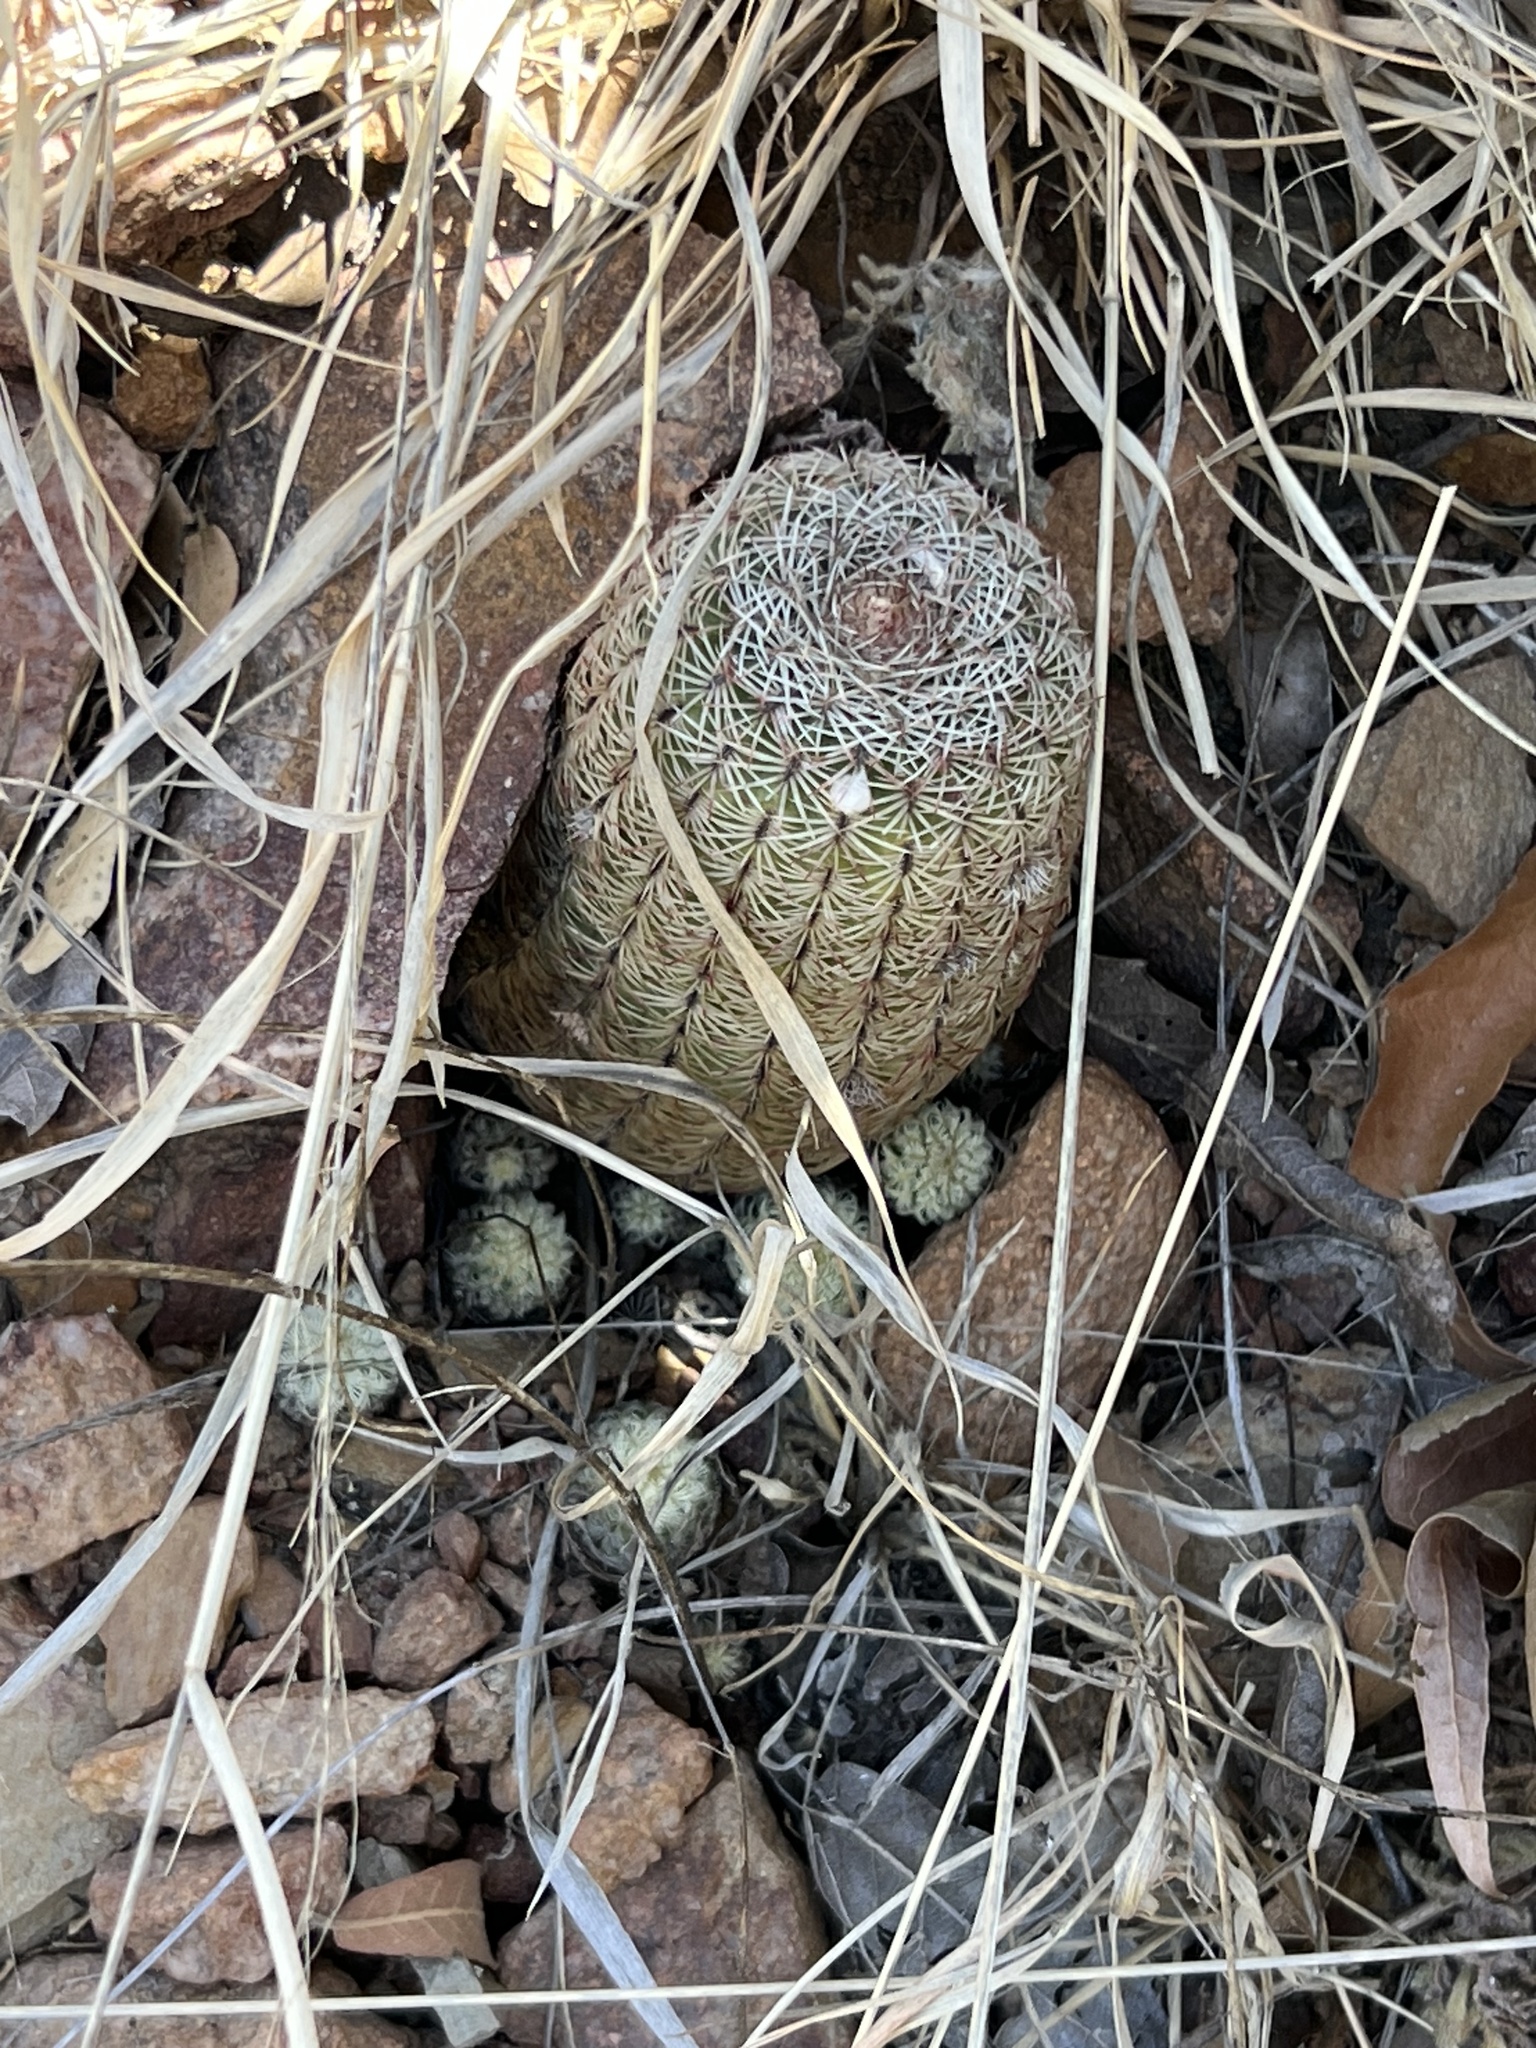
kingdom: Plantae
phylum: Tracheophyta
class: Magnoliopsida
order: Caryophyllales
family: Cactaceae
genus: Echinocereus
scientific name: Echinocereus rigidissimus
